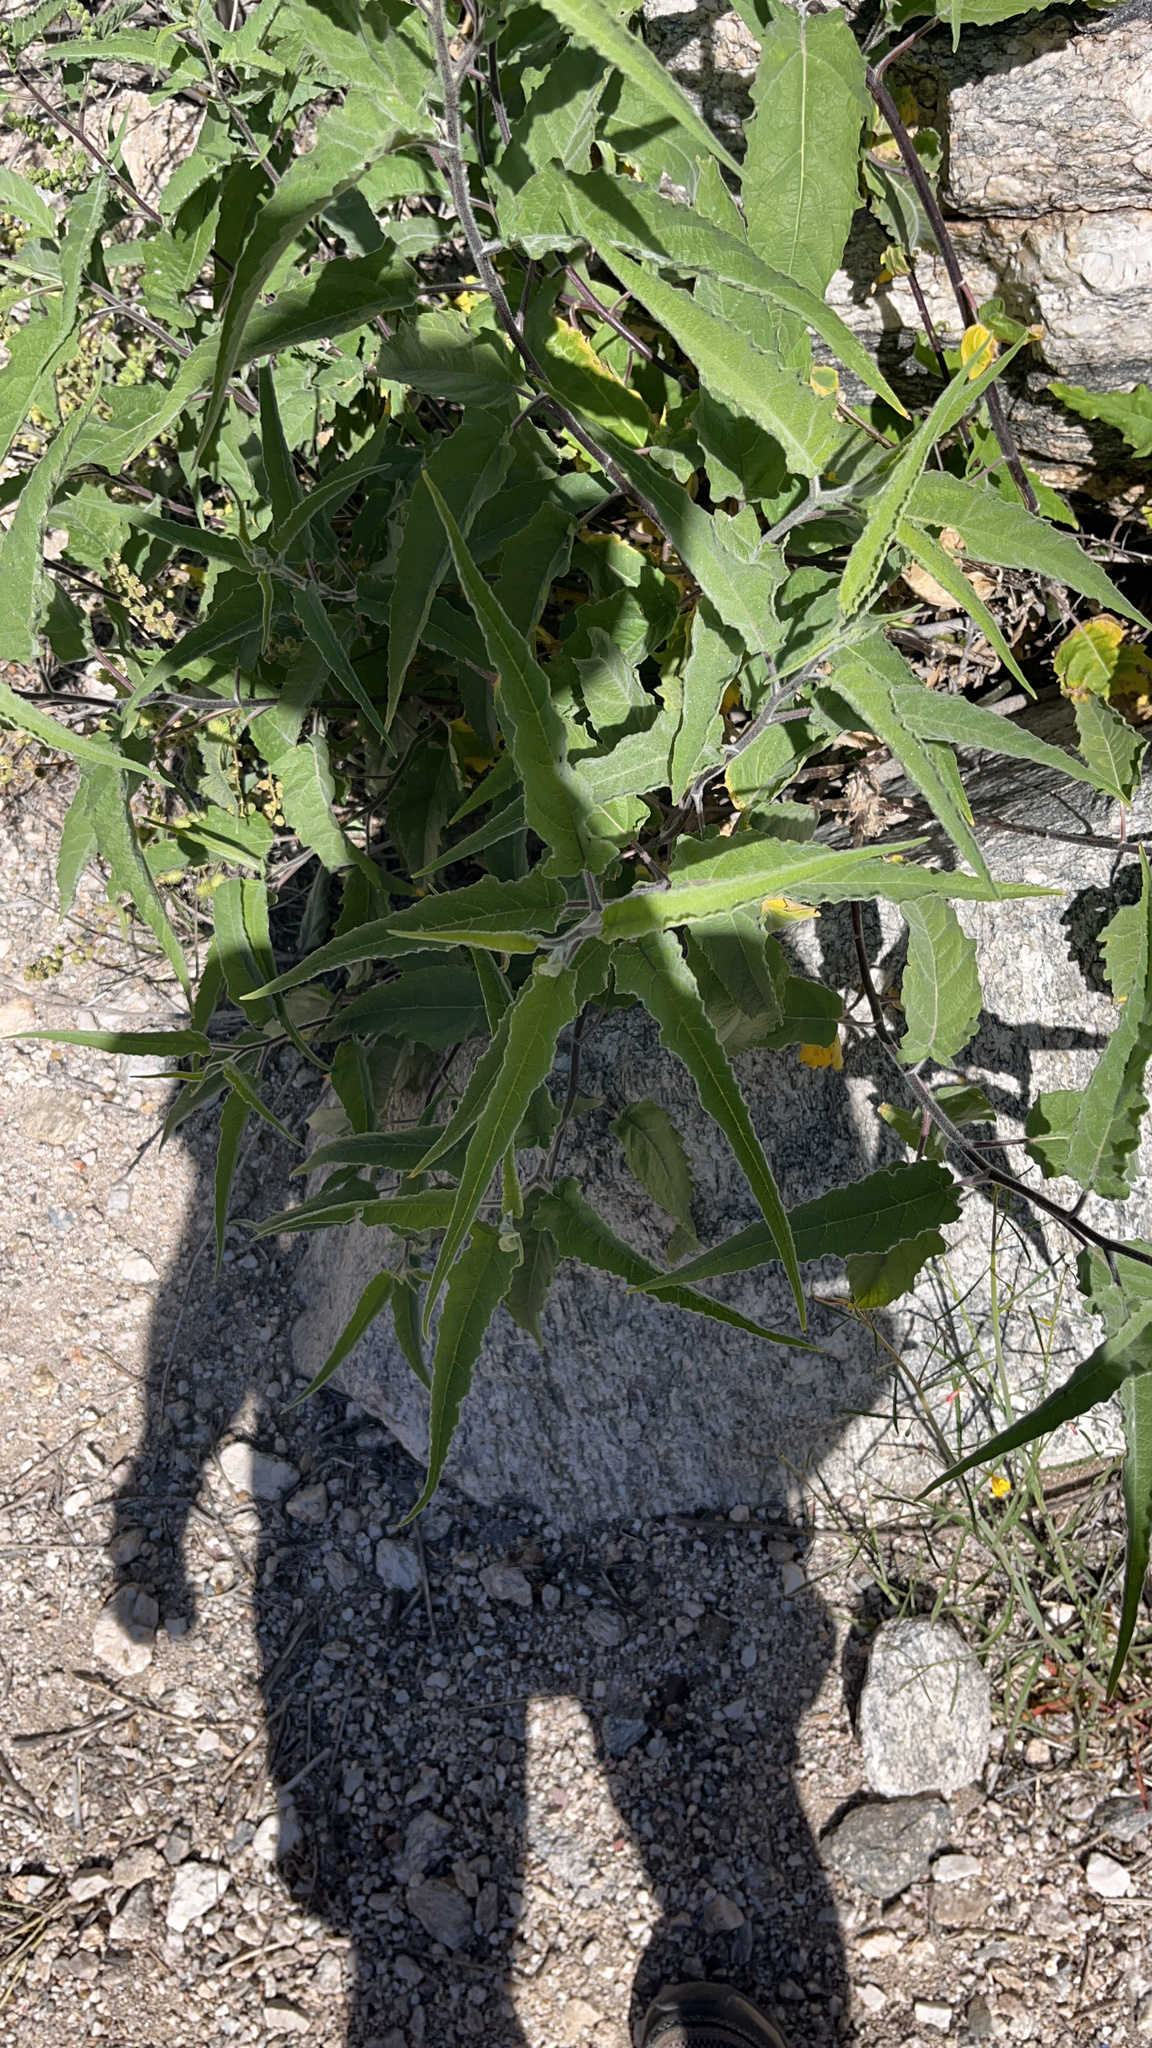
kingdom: Plantae
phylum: Tracheophyta
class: Magnoliopsida
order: Asterales
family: Asteraceae
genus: Ambrosia
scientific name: Ambrosia ambrosioides
